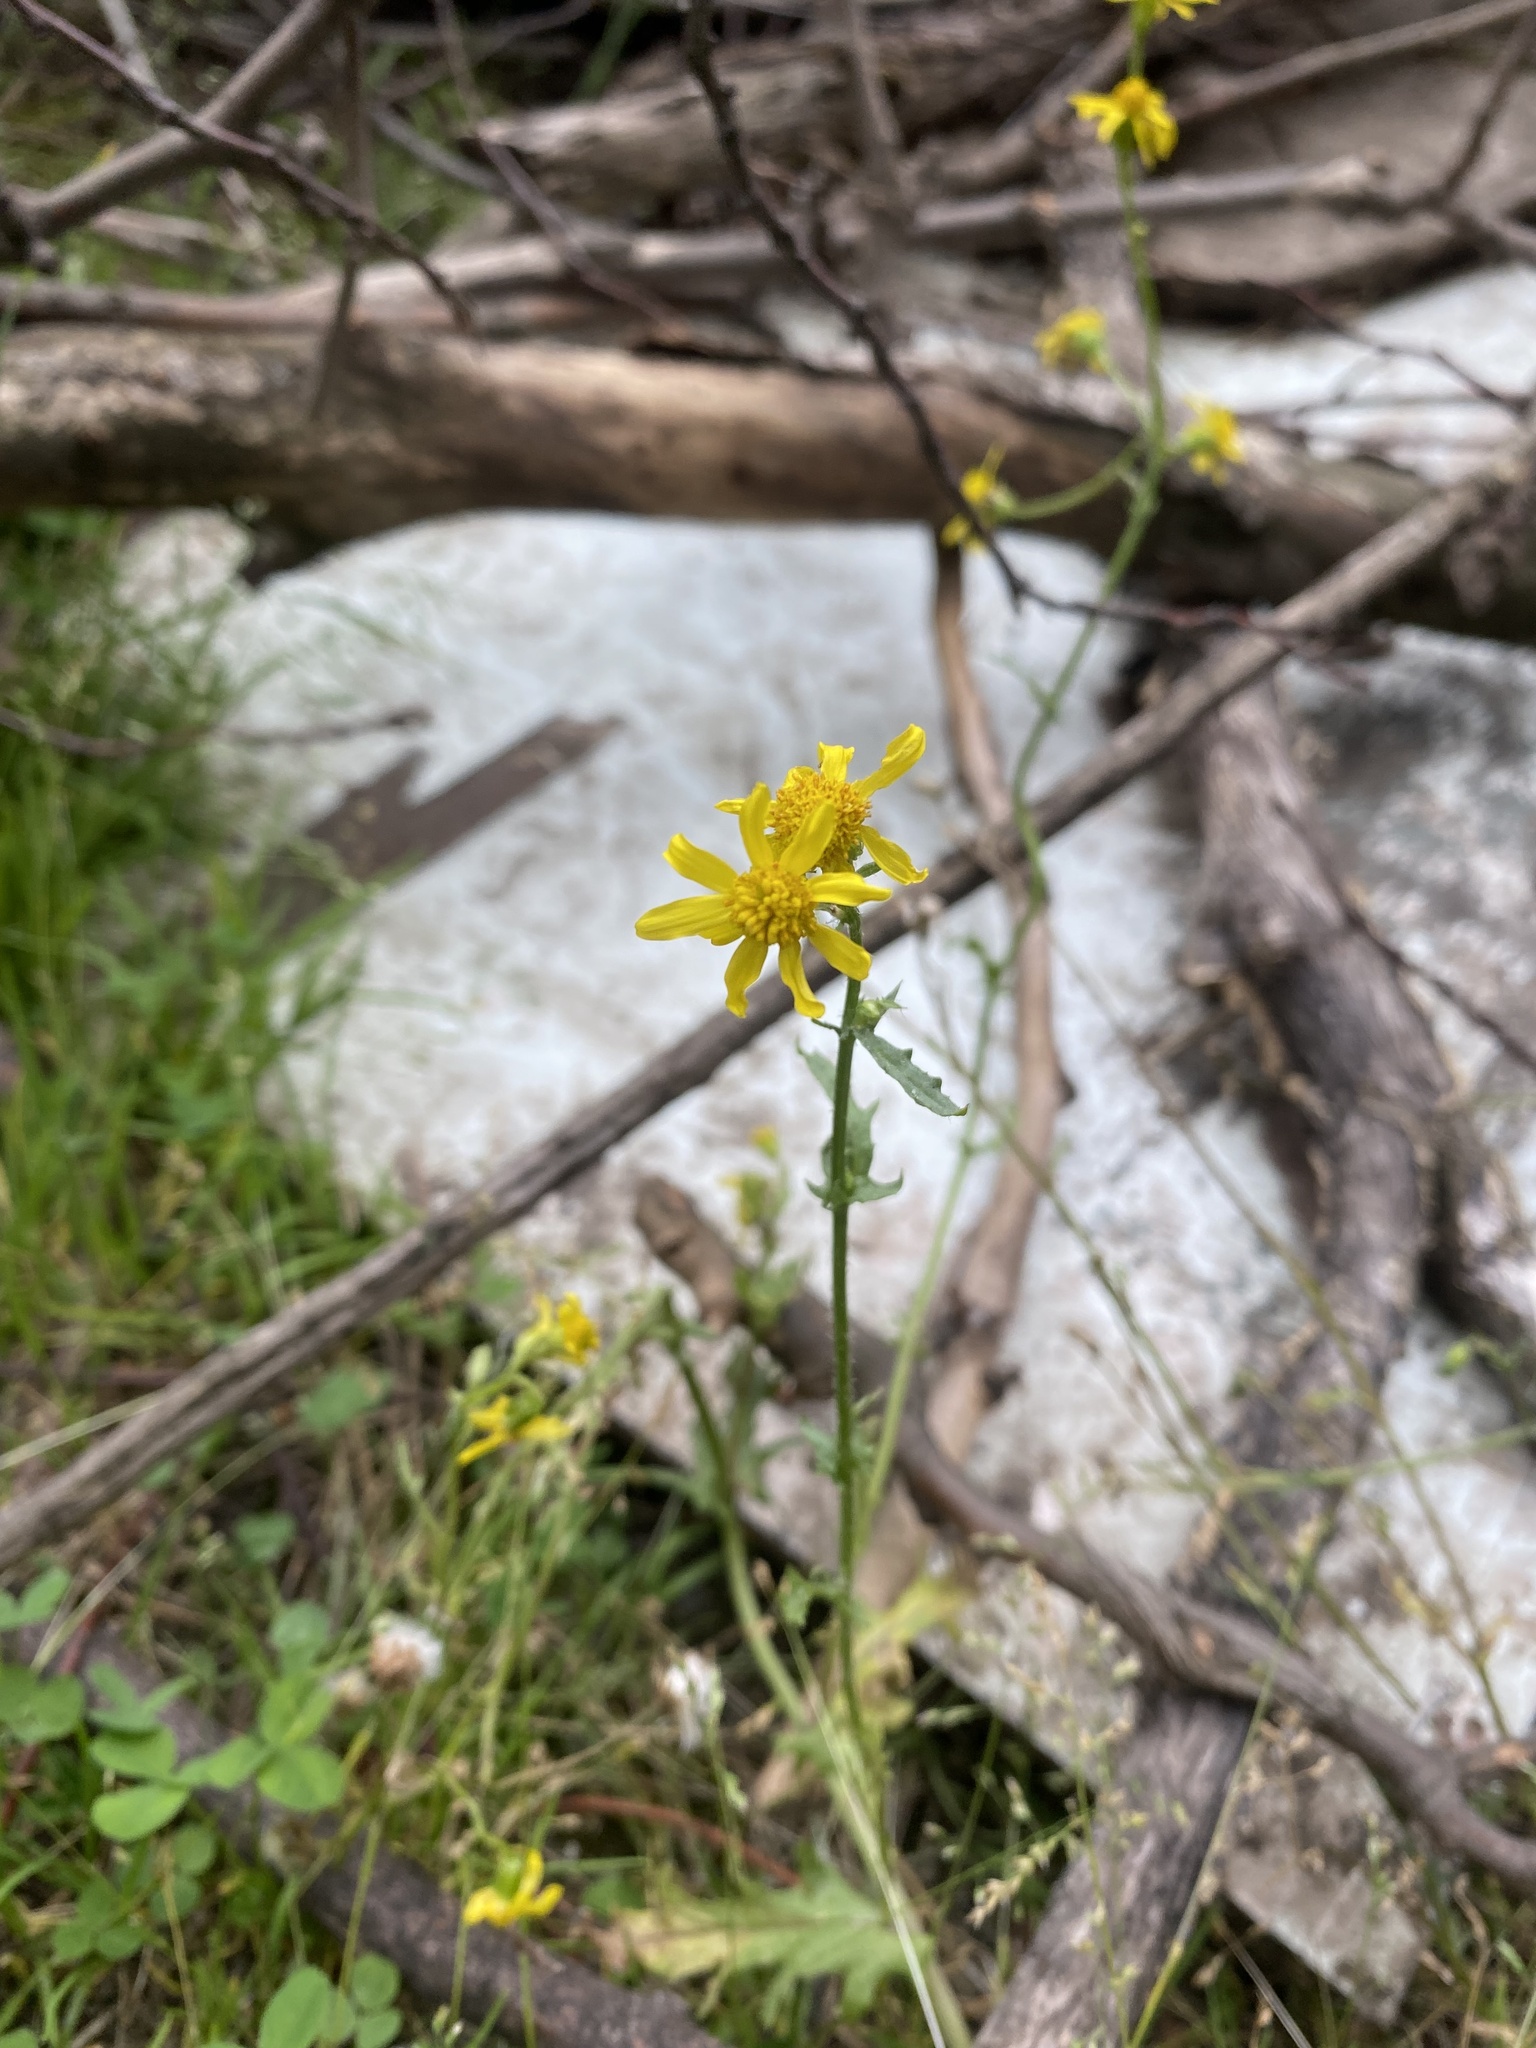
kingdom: Plantae
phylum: Tracheophyta
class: Magnoliopsida
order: Asterales
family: Asteraceae
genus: Senecio
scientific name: Senecio vernalis
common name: Eastern groundsel
